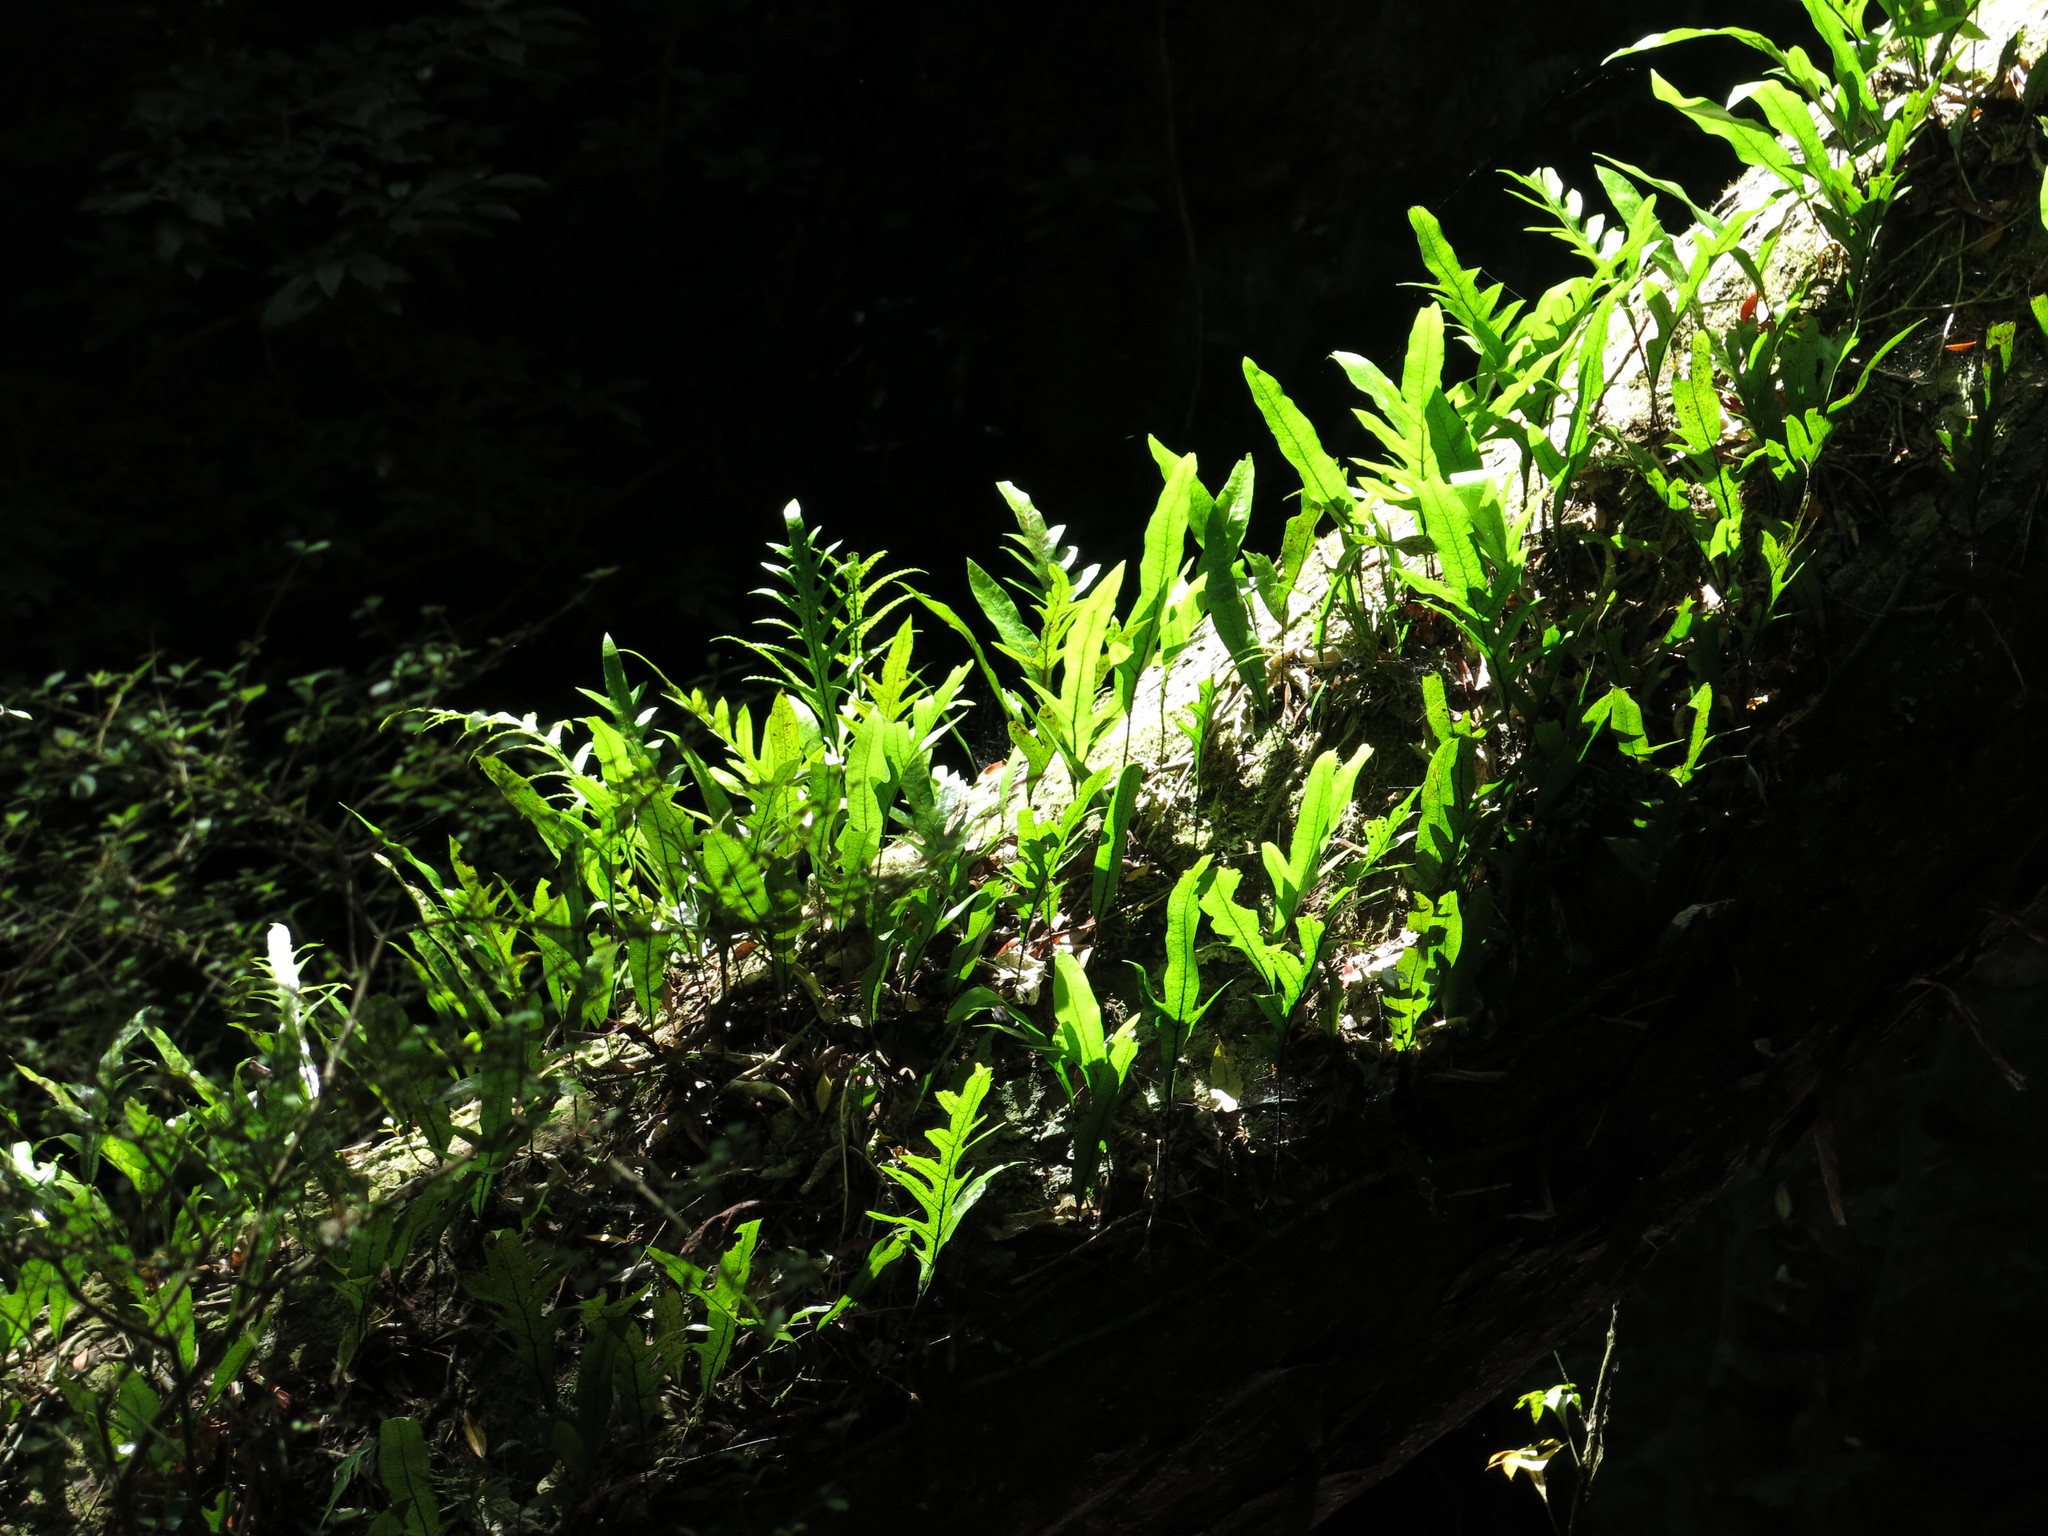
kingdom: Plantae
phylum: Tracheophyta
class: Polypodiopsida
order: Polypodiales
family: Polypodiaceae
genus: Lecanopteris
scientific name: Lecanopteris pustulata
